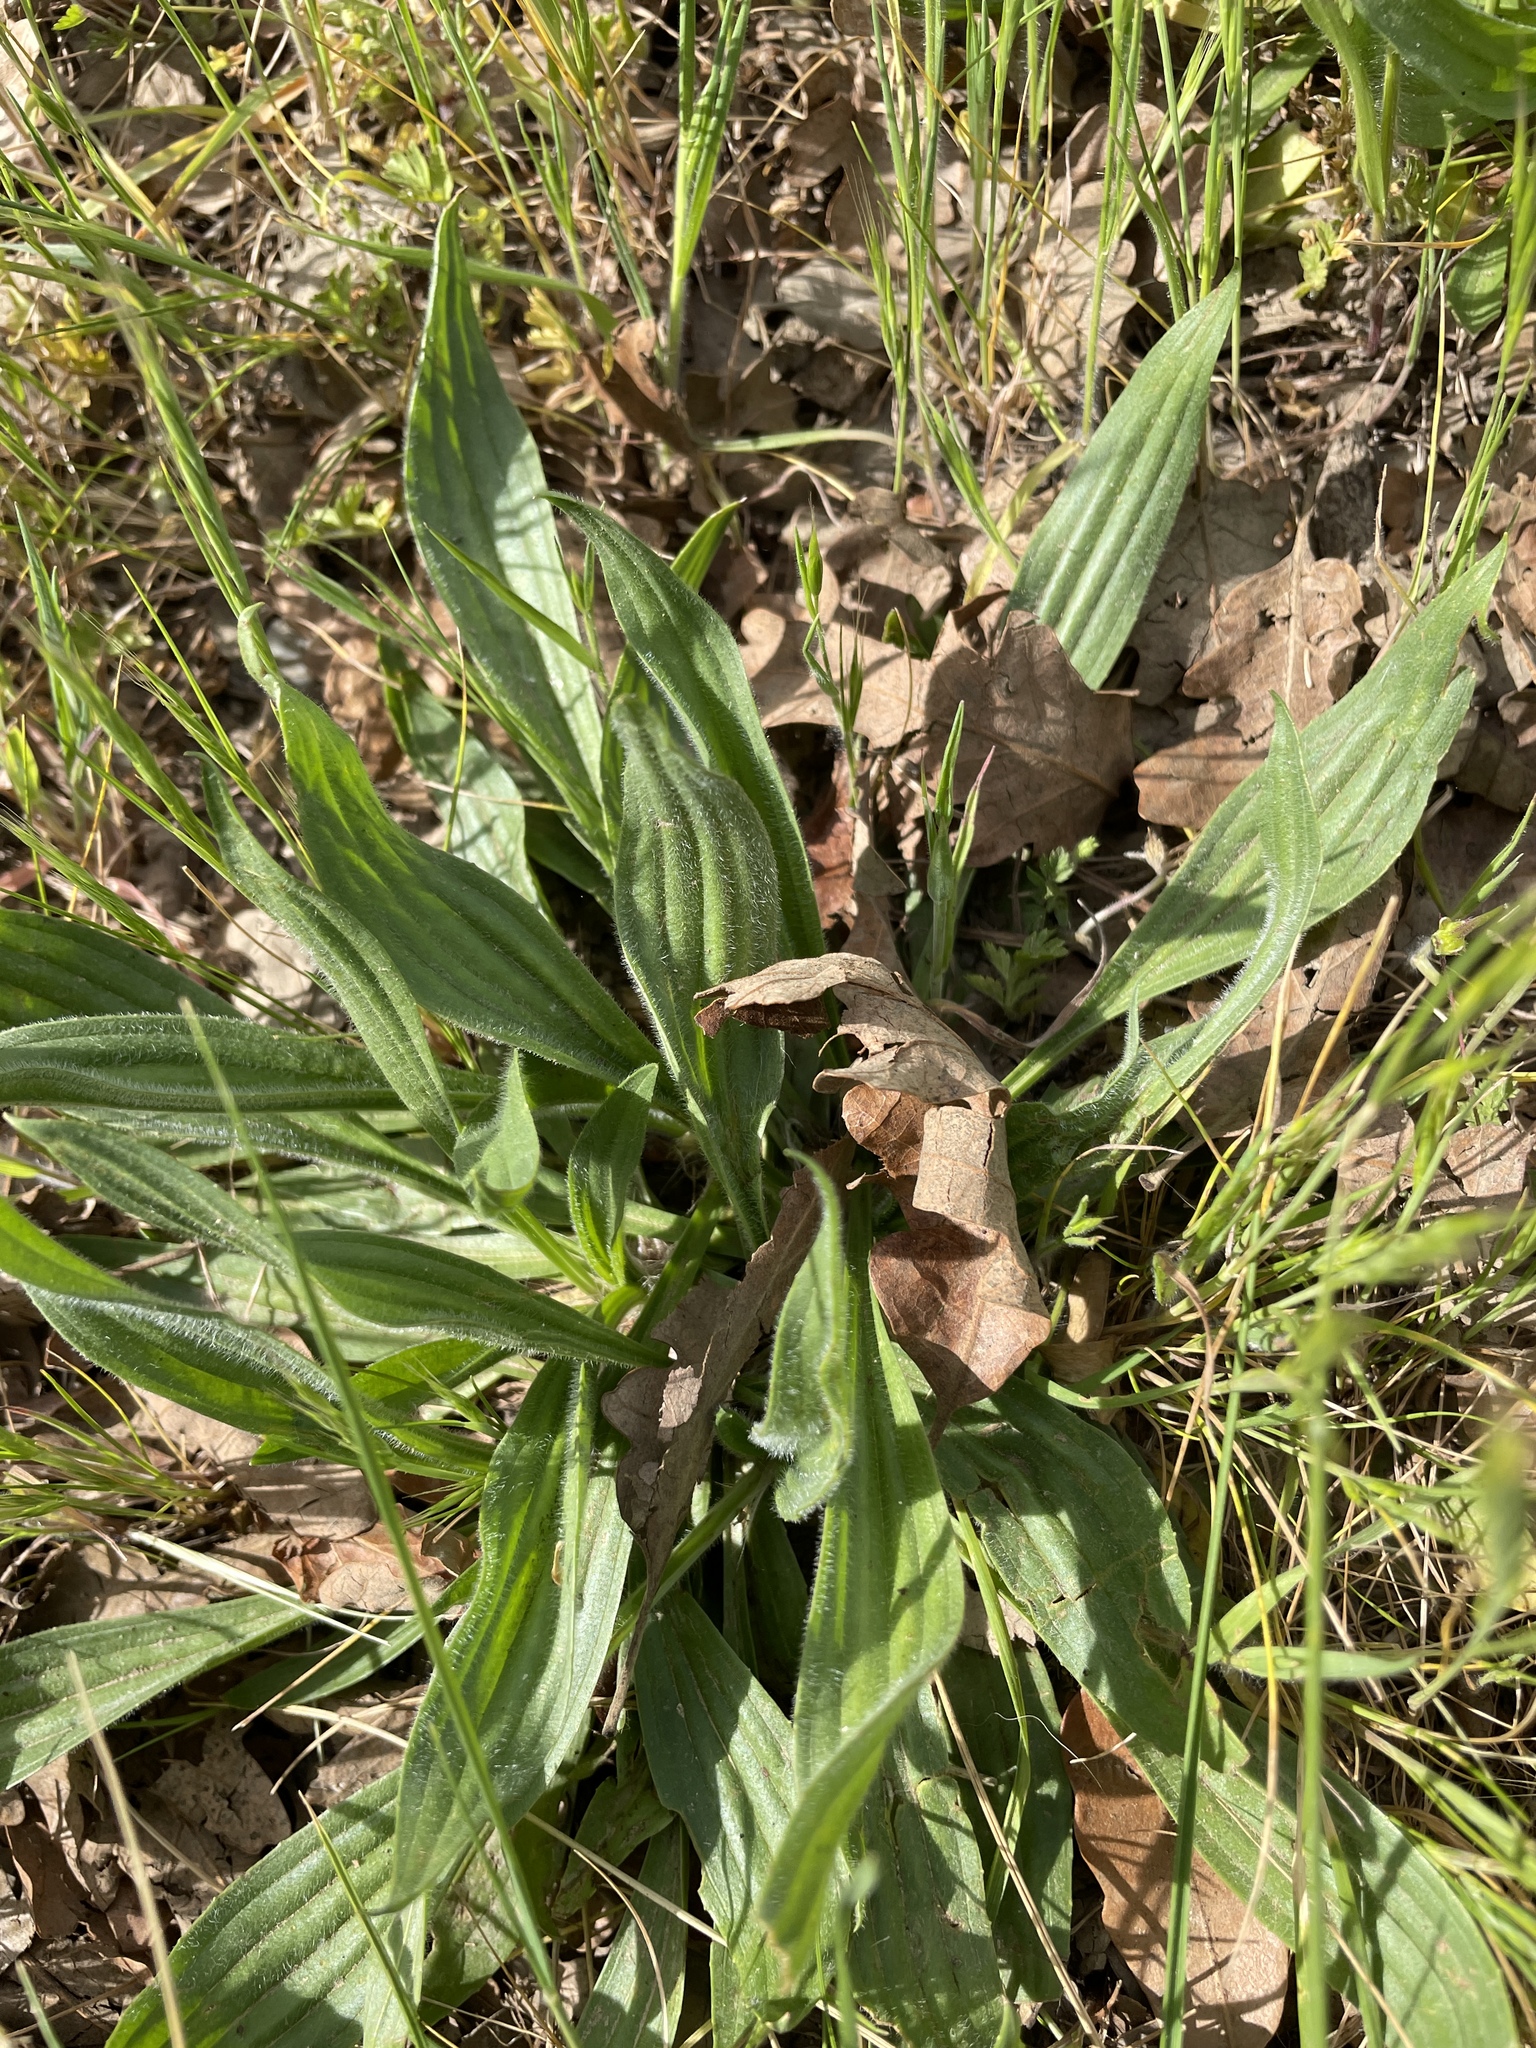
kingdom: Plantae
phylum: Tracheophyta
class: Magnoliopsida
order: Lamiales
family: Plantaginaceae
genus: Plantago
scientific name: Plantago lanceolata
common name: Ribwort plantain
